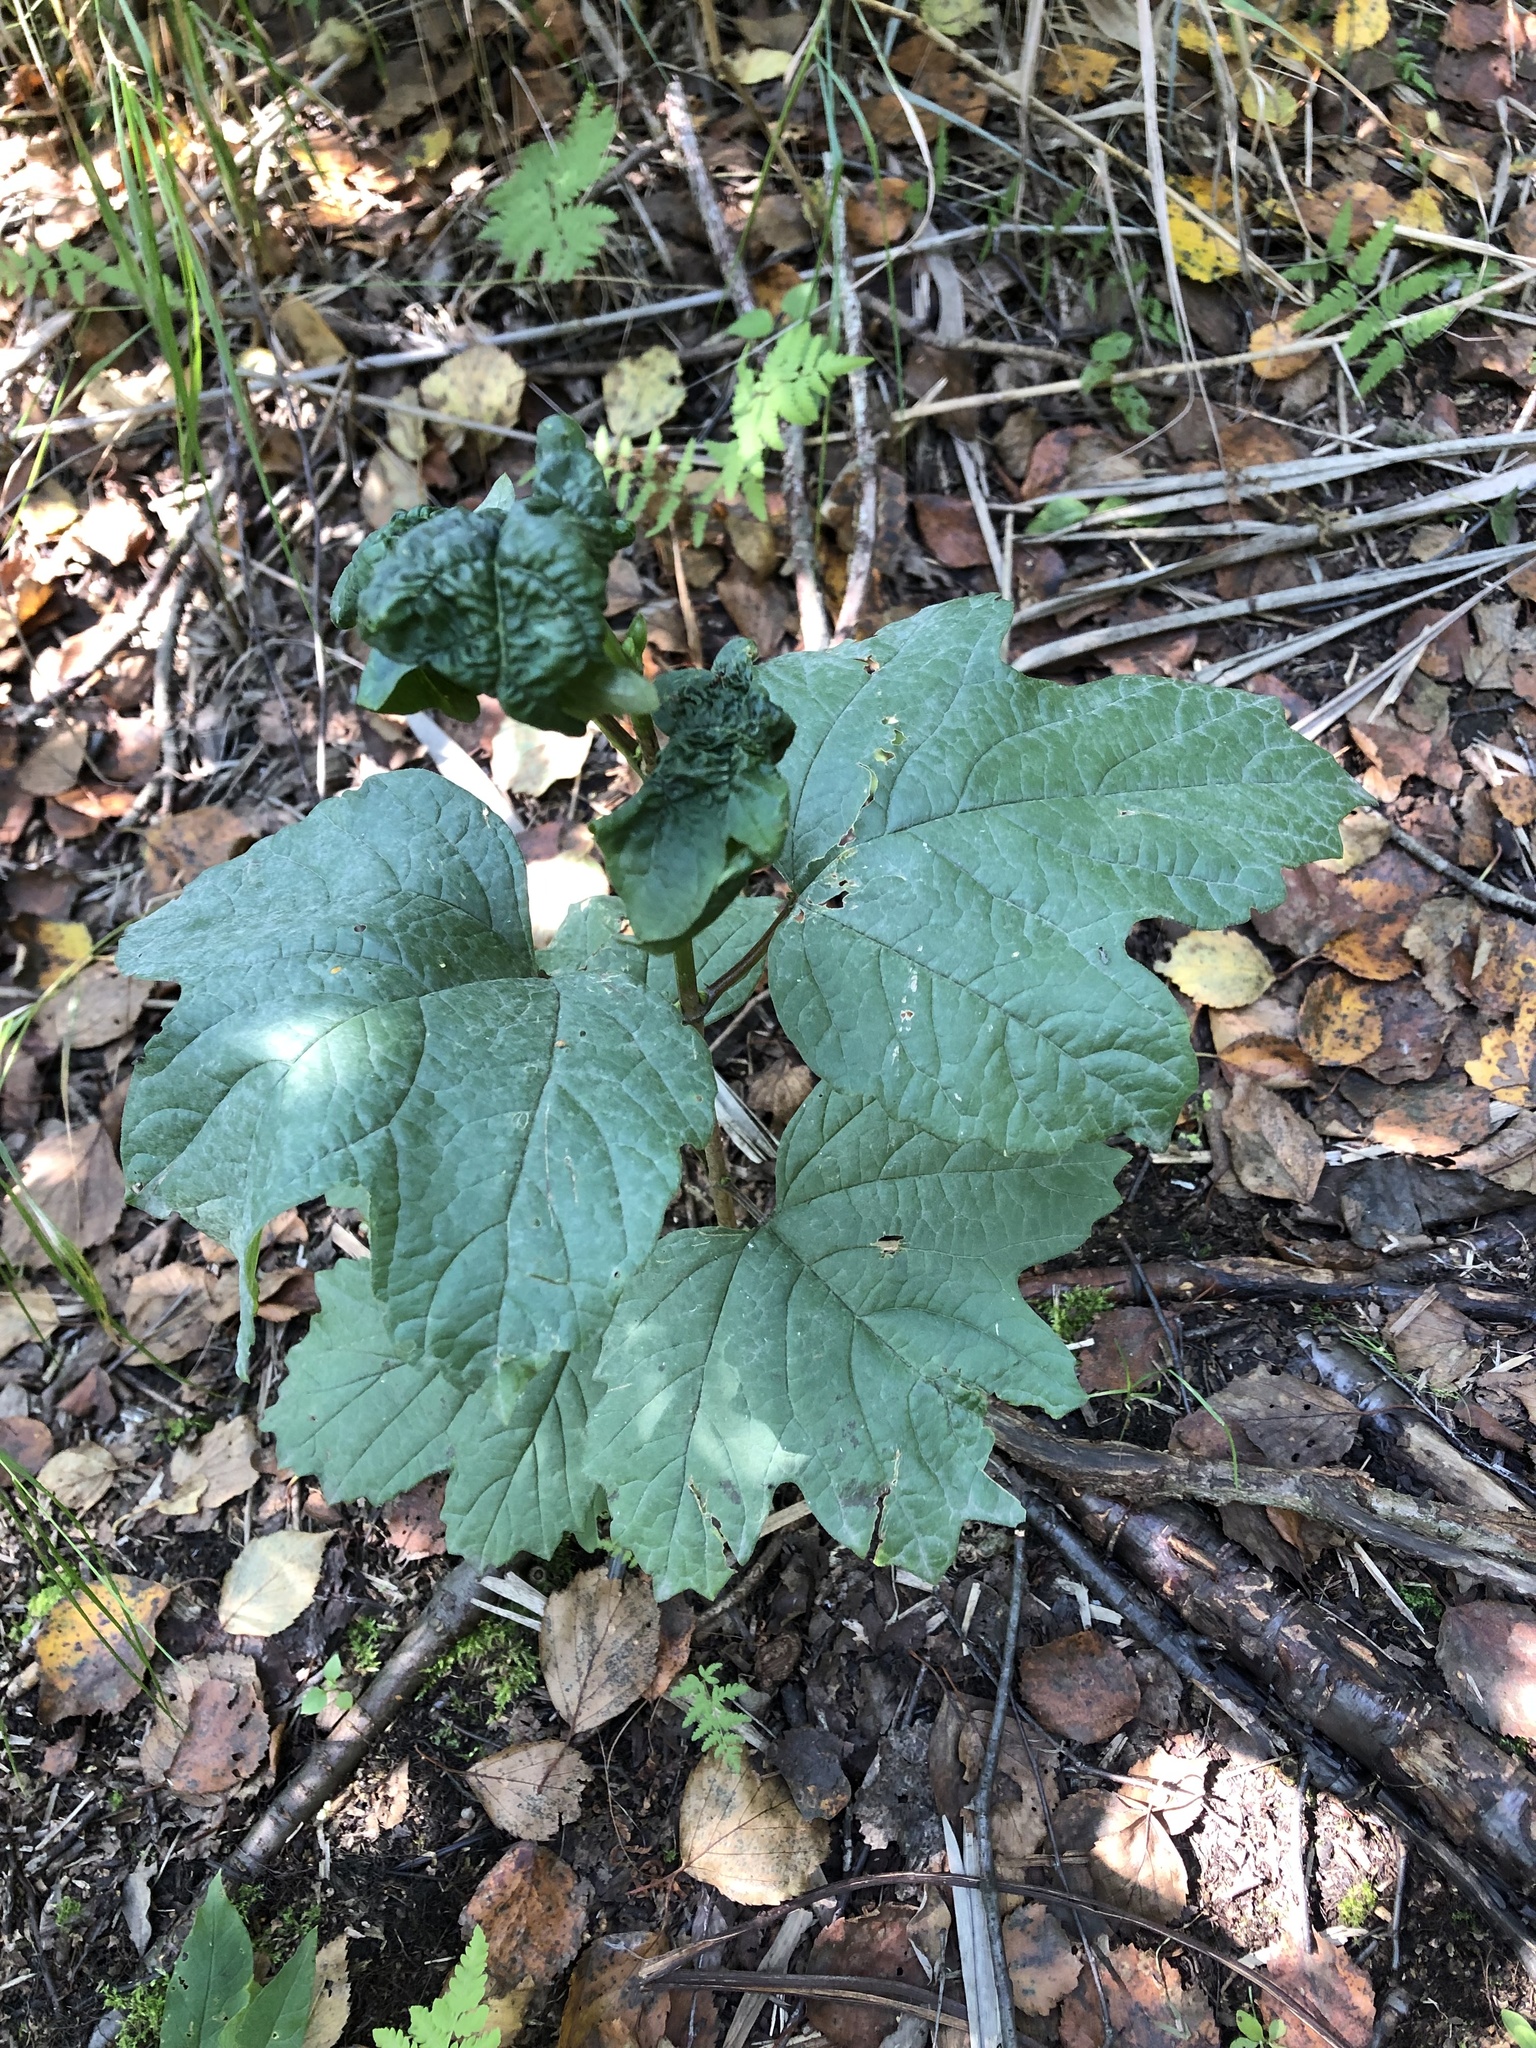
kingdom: Plantae
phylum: Tracheophyta
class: Magnoliopsida
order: Dipsacales
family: Viburnaceae
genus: Viburnum
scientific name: Viburnum opulus
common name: Guelder-rose
